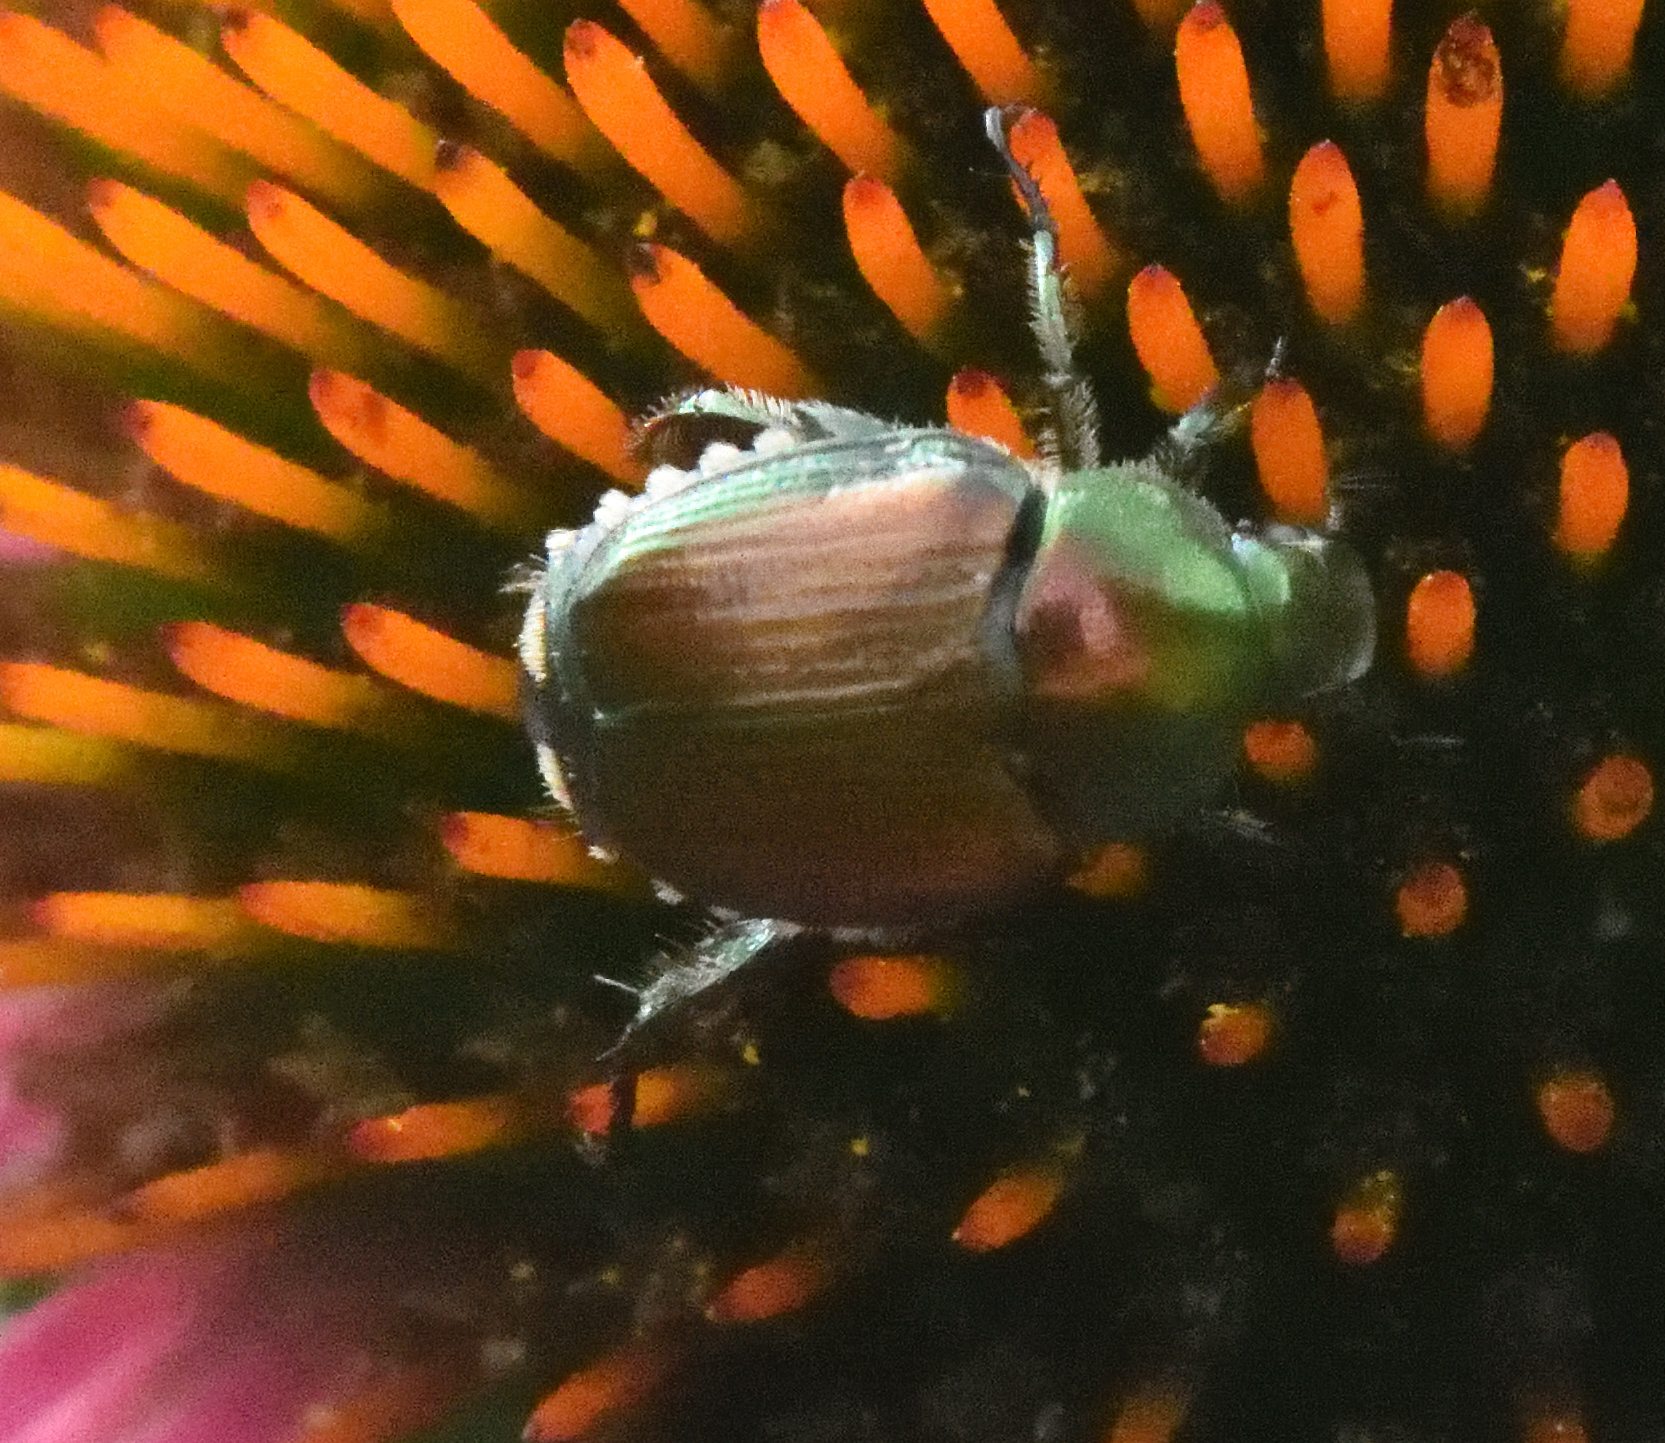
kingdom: Animalia
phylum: Arthropoda
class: Insecta
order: Coleoptera
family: Scarabaeidae
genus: Popillia
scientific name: Popillia japonica
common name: Japanese beetle
